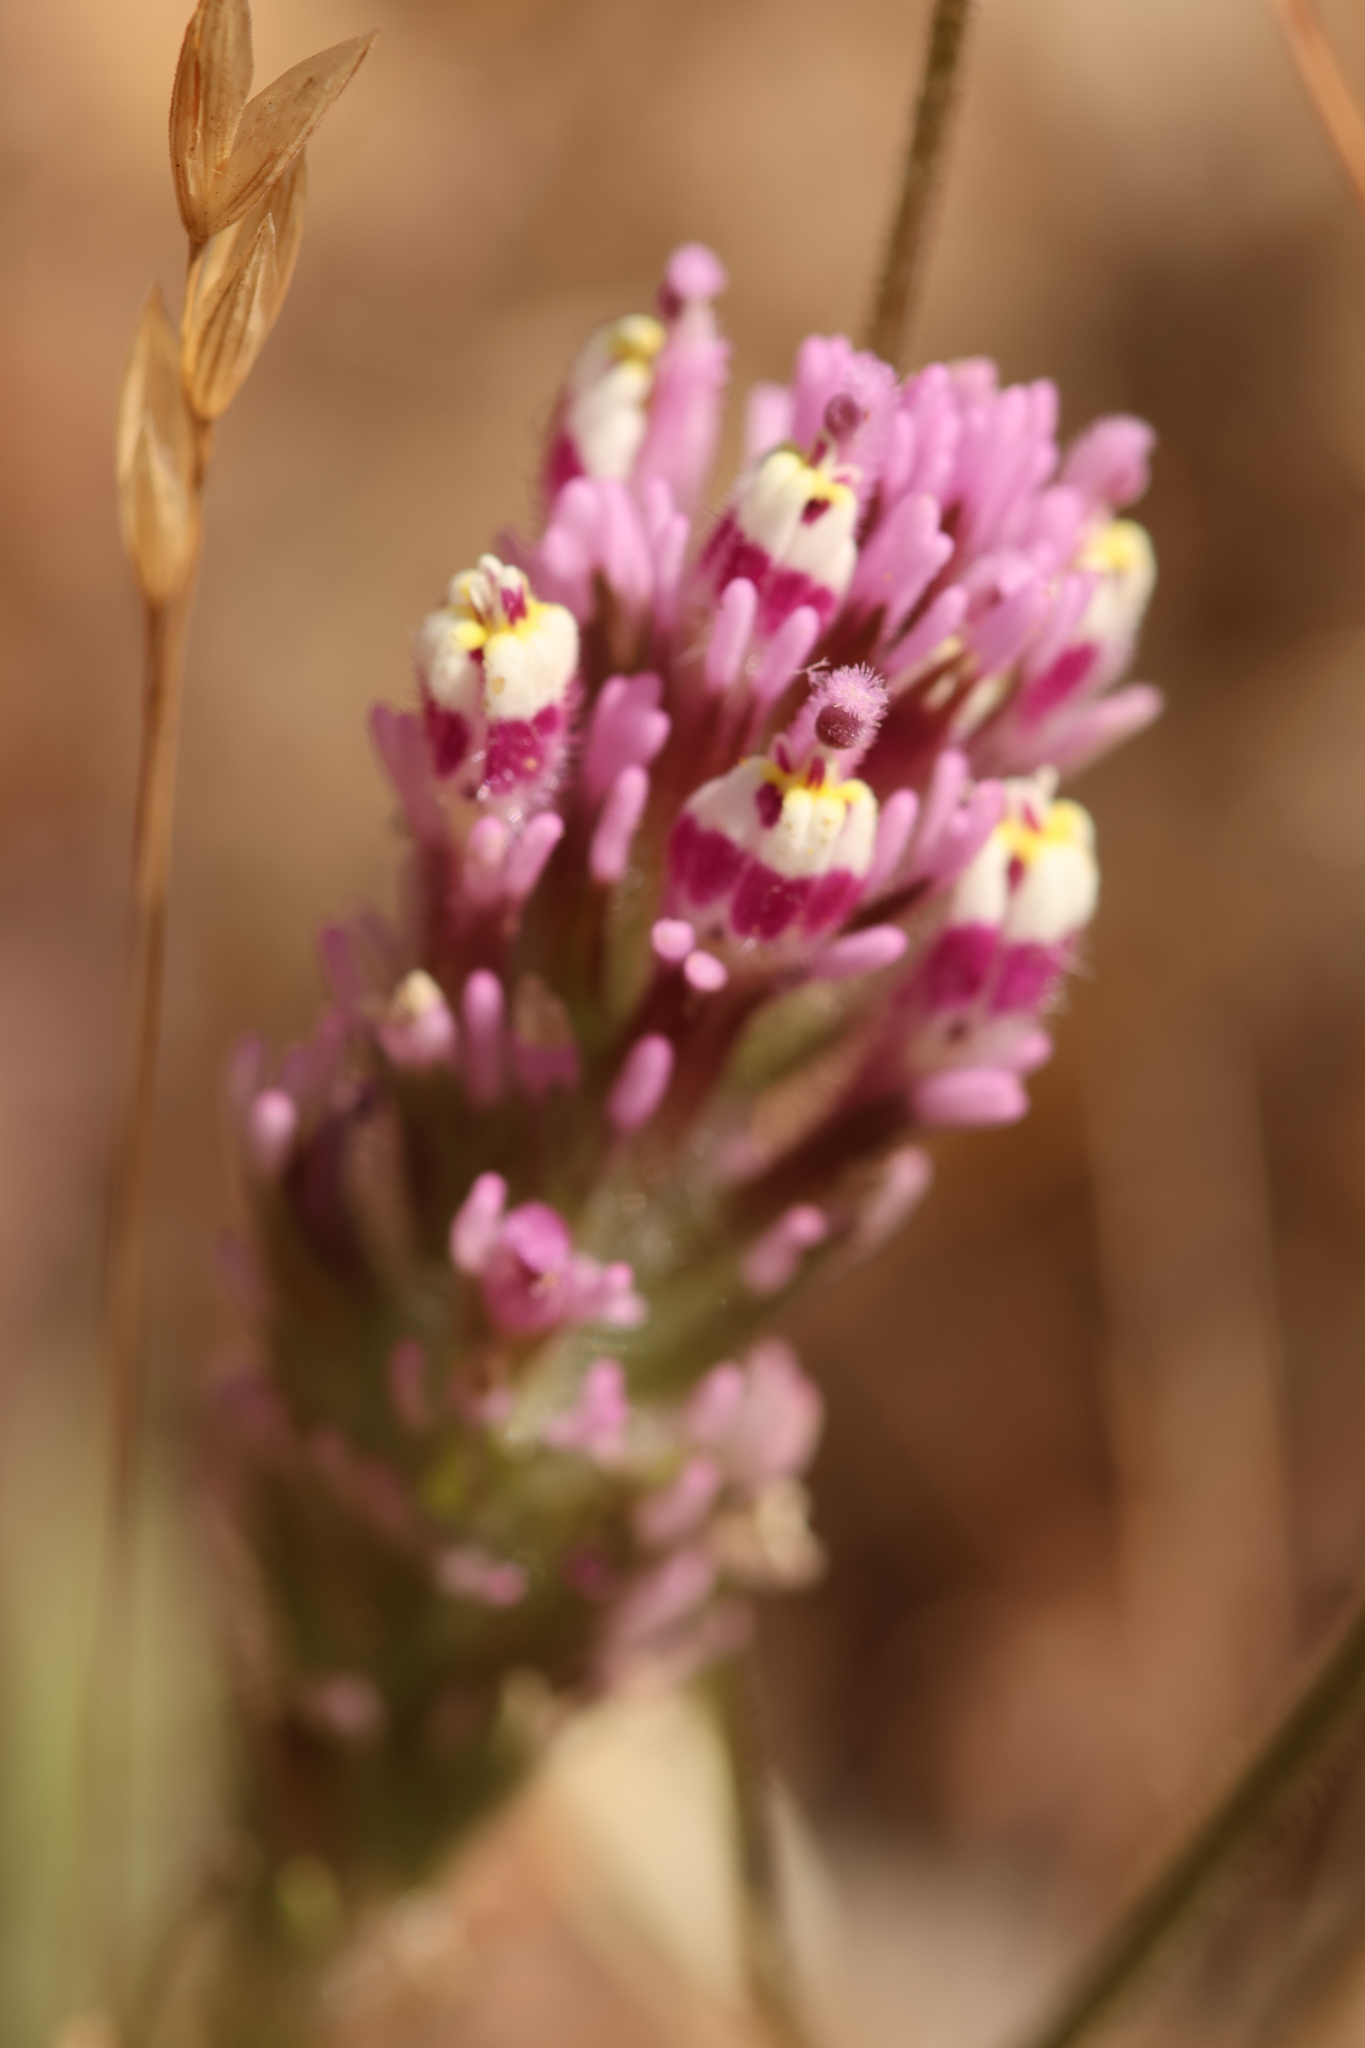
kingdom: Plantae
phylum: Tracheophyta
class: Magnoliopsida
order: Lamiales
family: Orobanchaceae
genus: Castilleja
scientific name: Castilleja exserta
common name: Purple owl-clover
